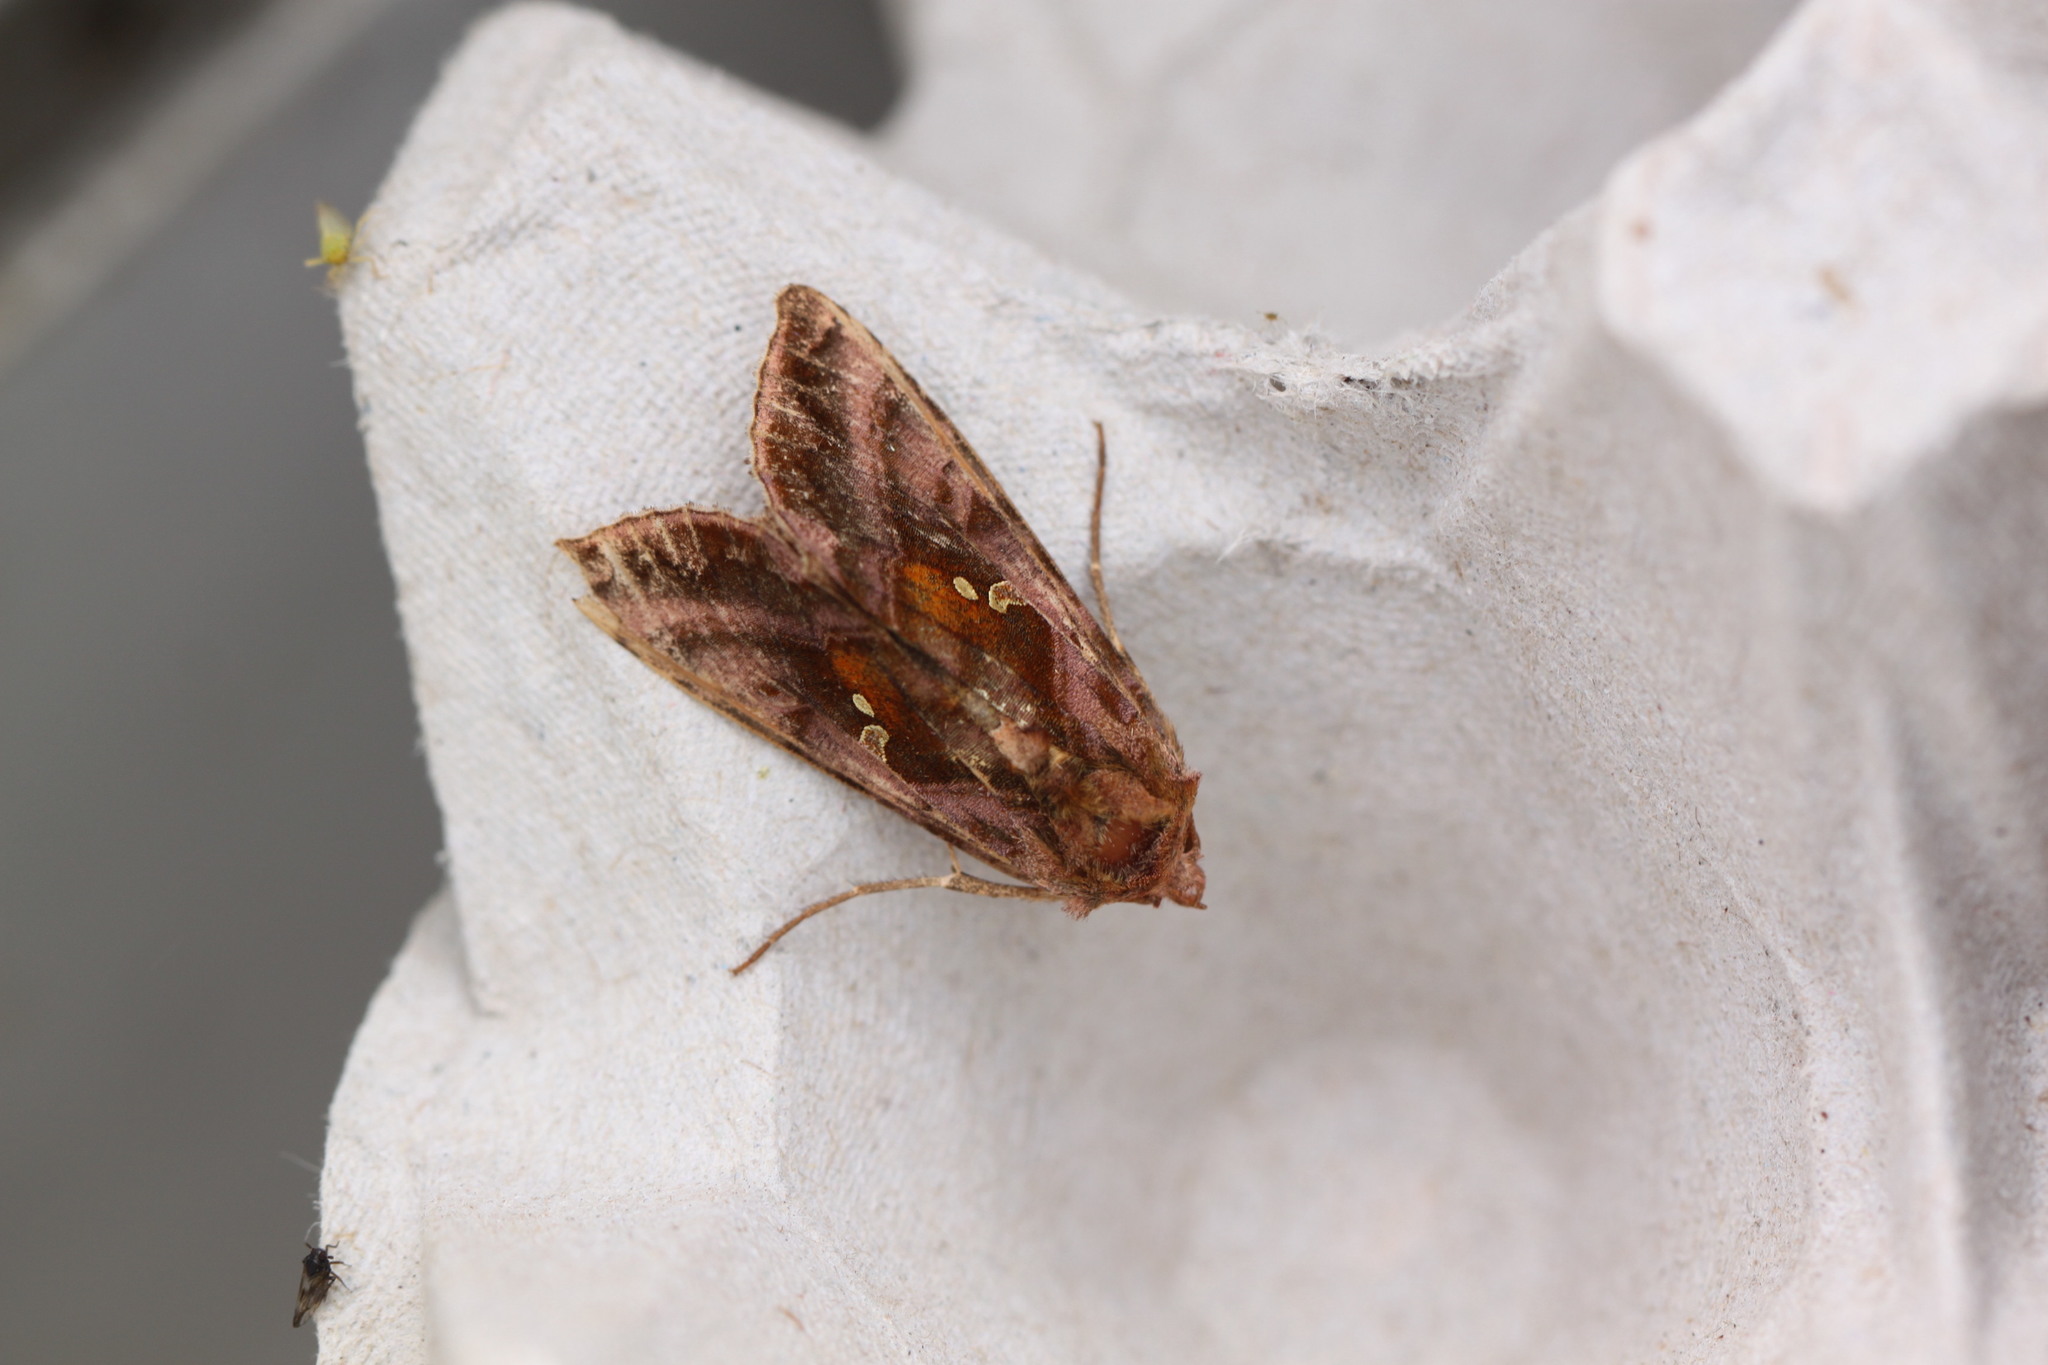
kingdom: Animalia
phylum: Arthropoda
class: Insecta
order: Lepidoptera
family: Noctuidae
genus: Autographa
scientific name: Autographa jota
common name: Plain golden y
